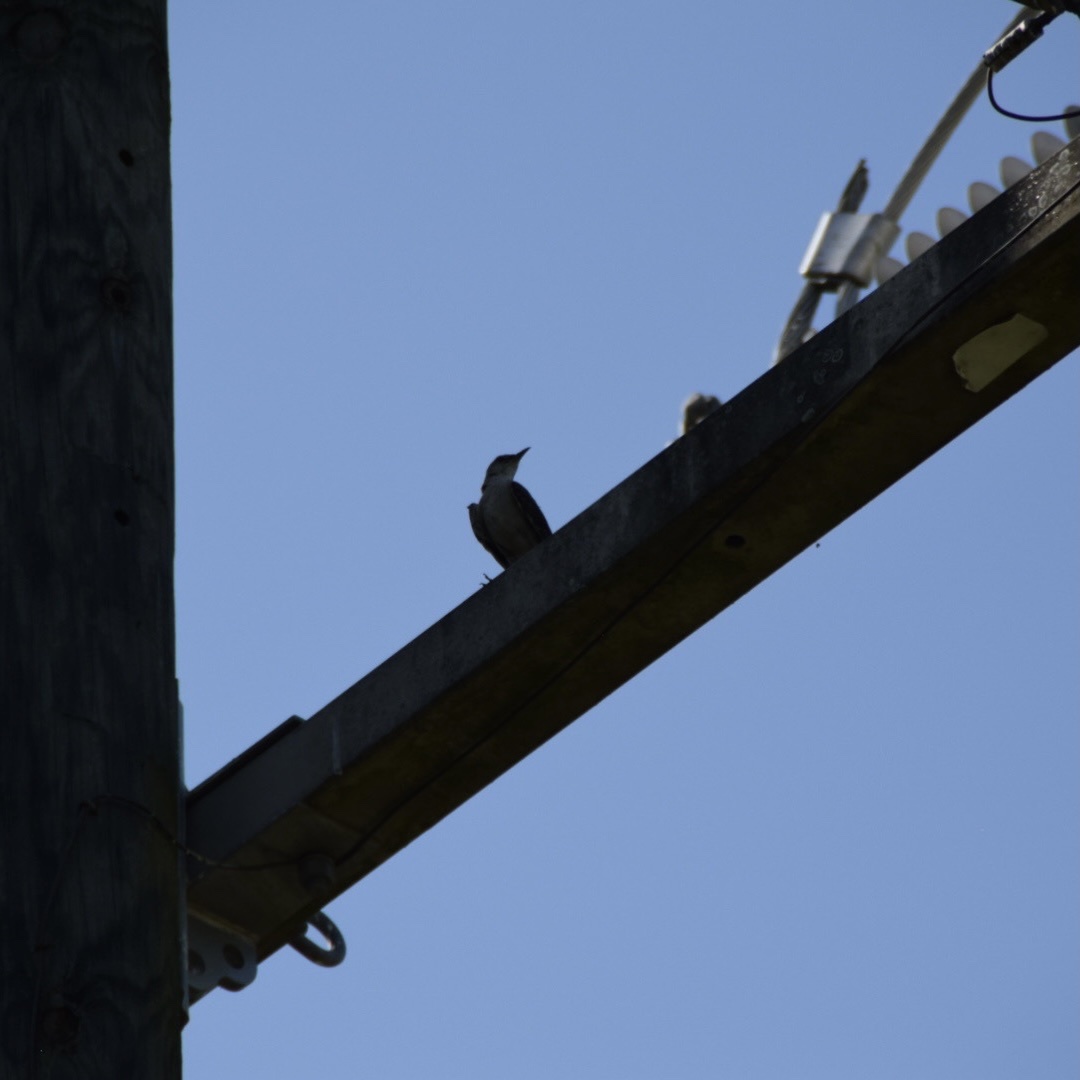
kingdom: Animalia
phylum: Chordata
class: Aves
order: Passeriformes
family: Mimidae
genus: Mimus
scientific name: Mimus polyglottos
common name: Northern mockingbird
